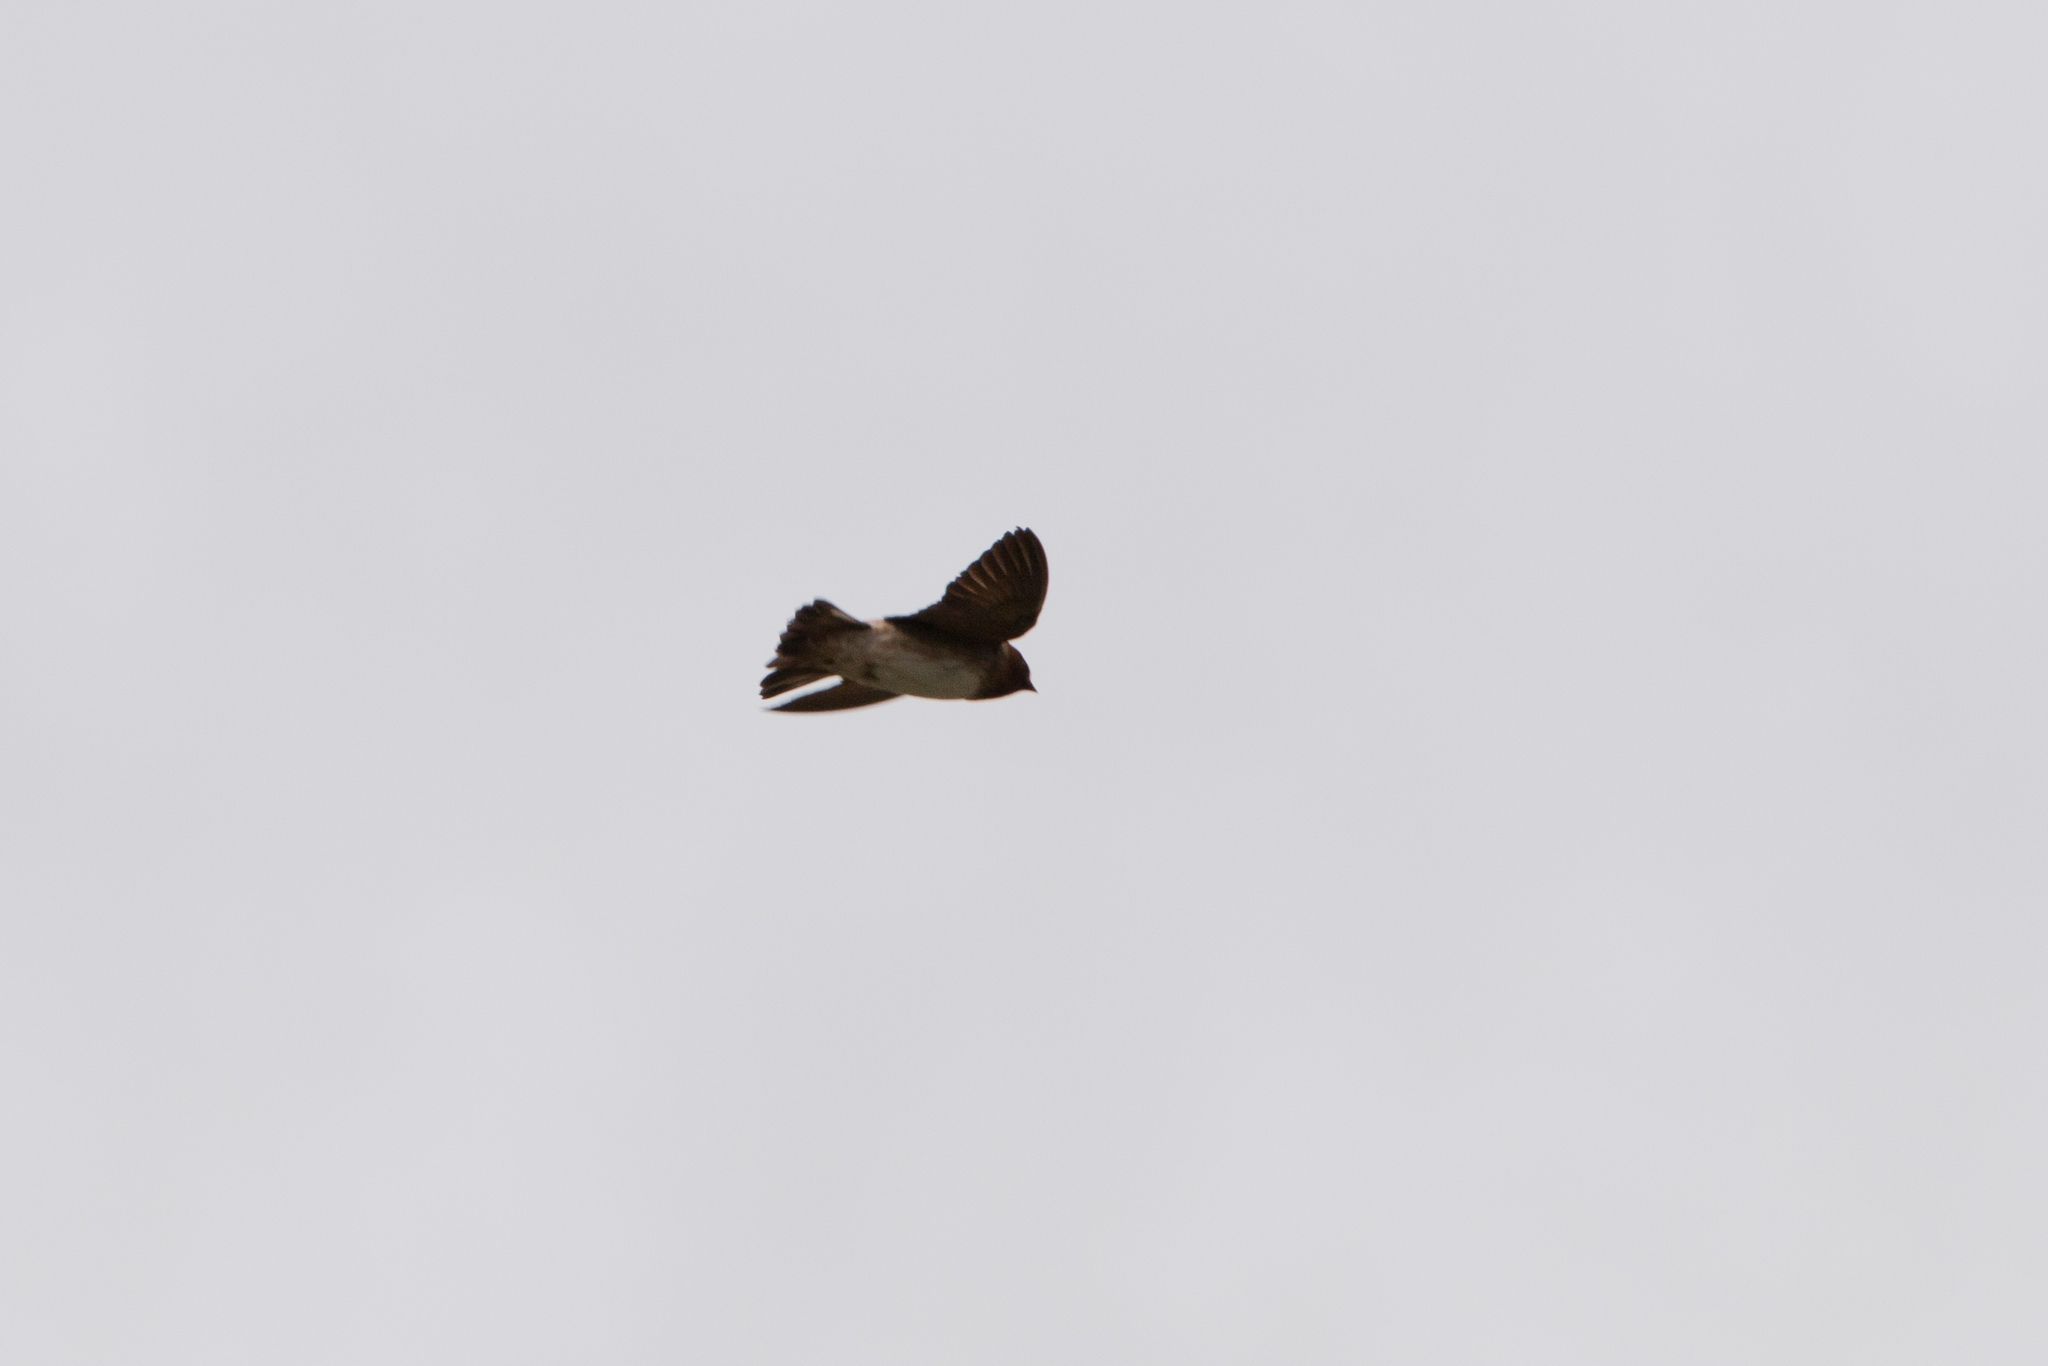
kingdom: Animalia
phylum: Chordata
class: Aves
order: Passeriformes
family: Hirundinidae
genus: Petrochelidon
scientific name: Petrochelidon pyrrhonota
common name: American cliff swallow
